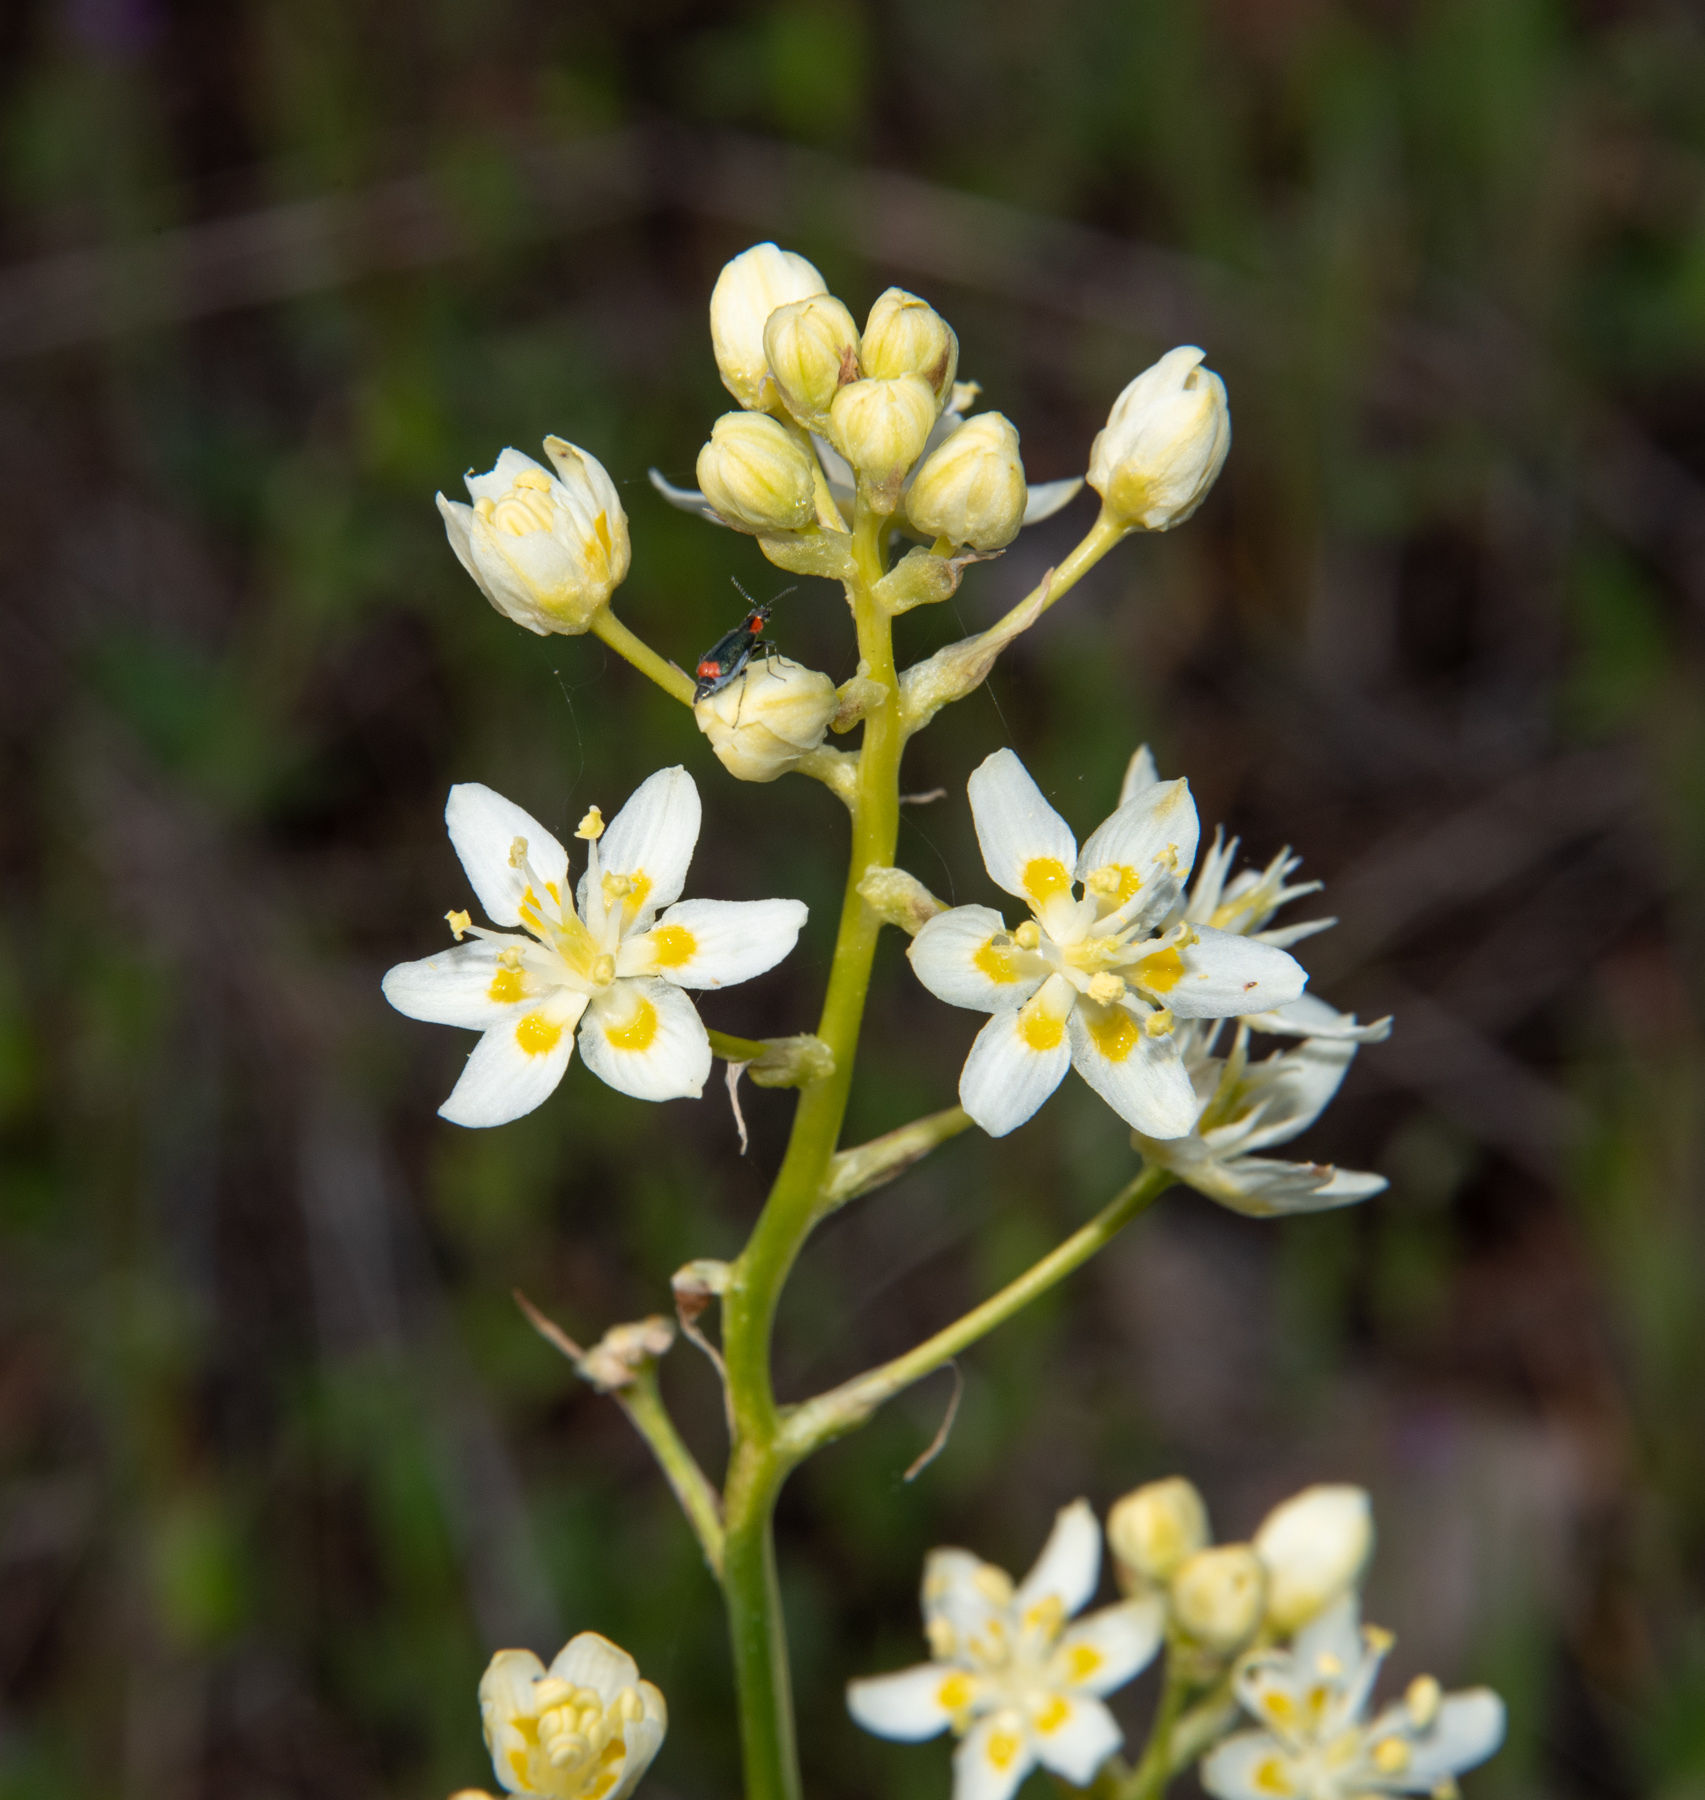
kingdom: Plantae
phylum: Tracheophyta
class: Liliopsida
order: Liliales
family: Melanthiaceae
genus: Toxicoscordion
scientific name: Toxicoscordion fremontii
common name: Fremont's death camas
